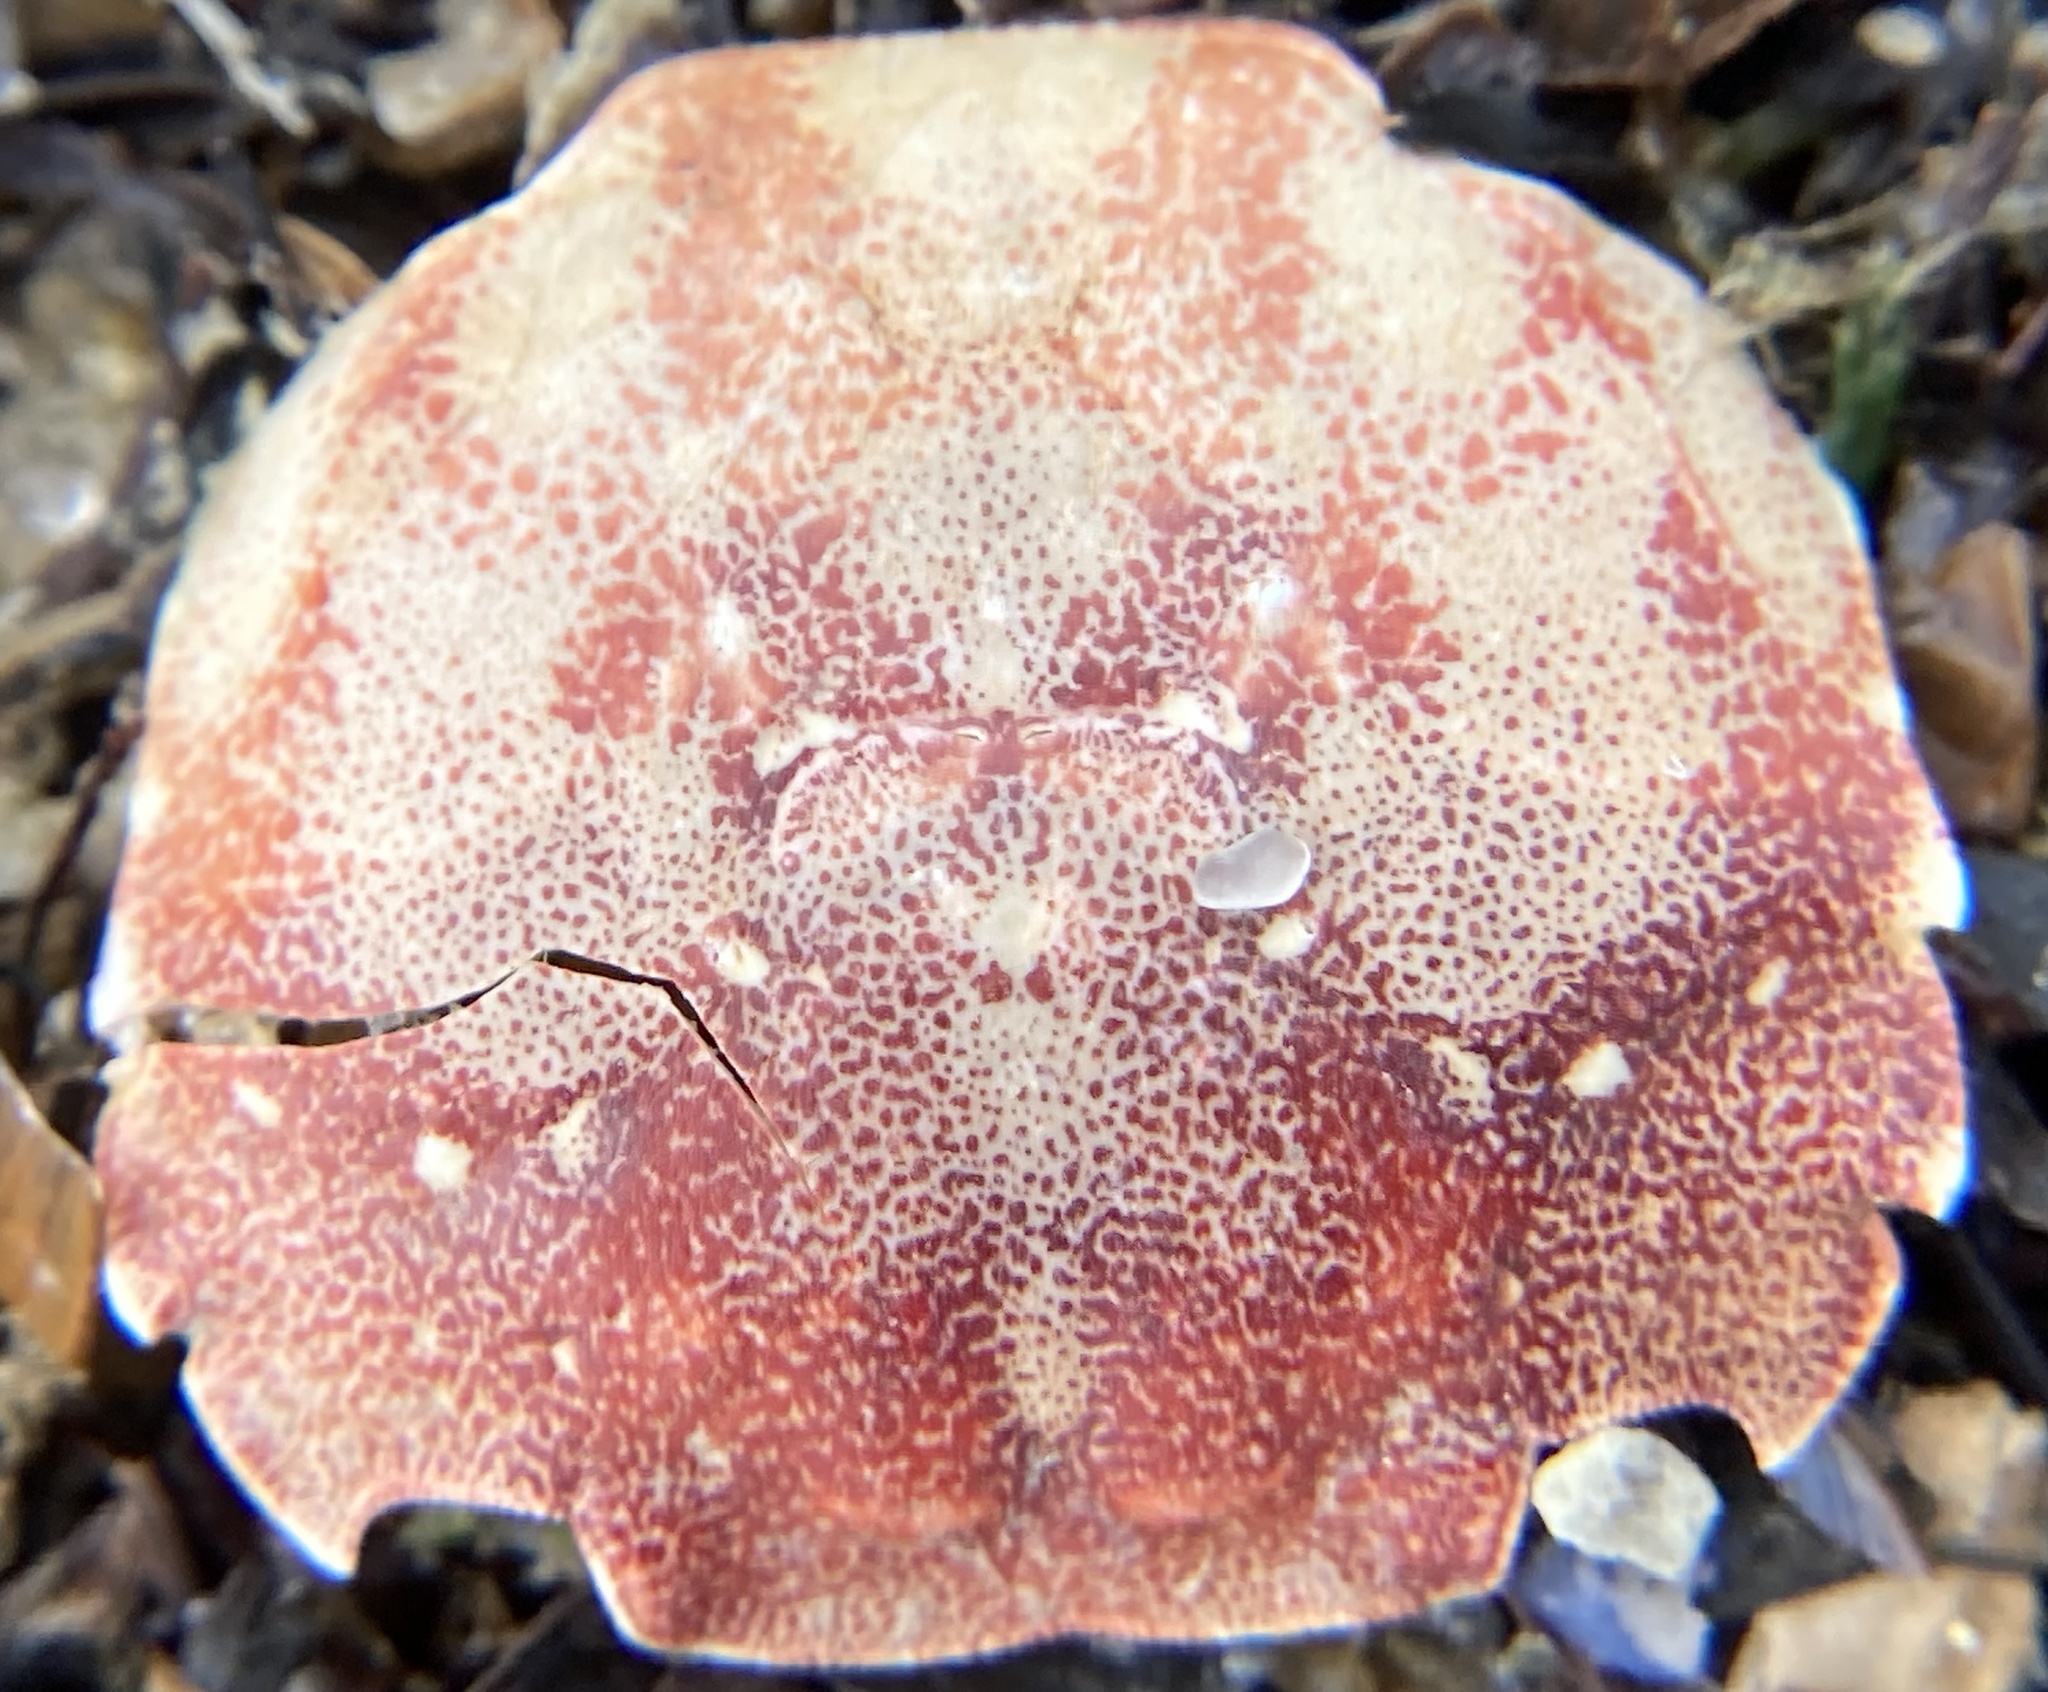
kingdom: Animalia
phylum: Arthropoda
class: Malacostraca
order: Decapoda
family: Varunidae
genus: Hemigrapsus
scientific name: Hemigrapsus sanguineus
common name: Asian shore crab
